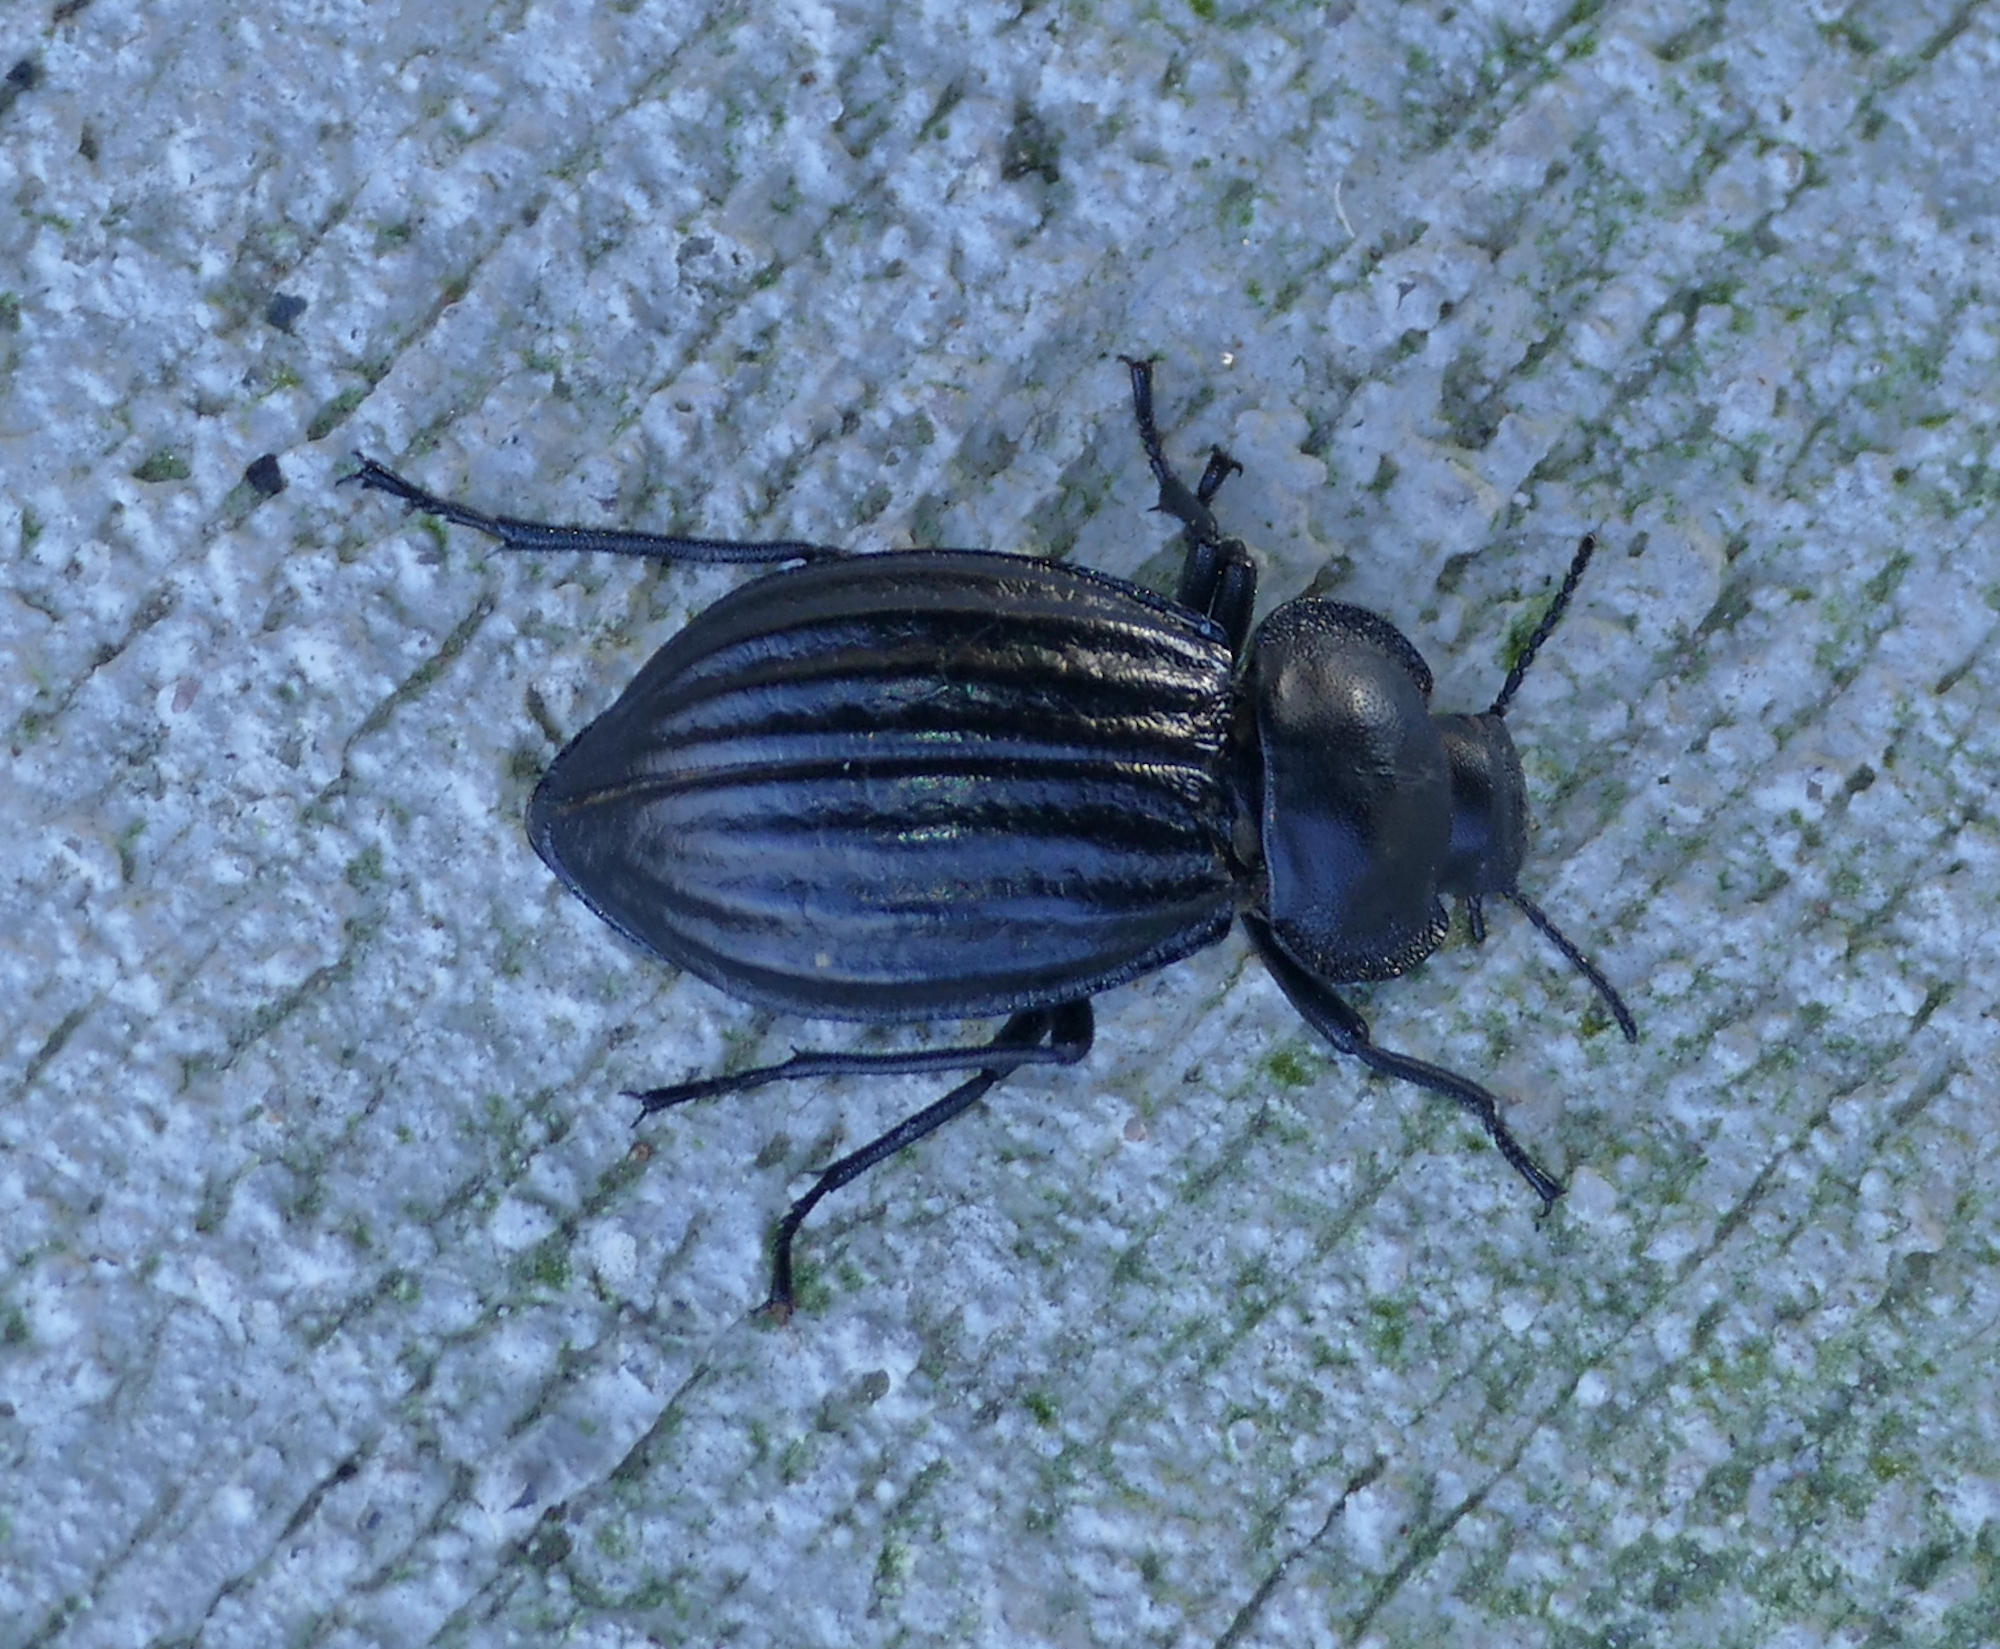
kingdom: Animalia
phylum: Arthropoda
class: Insecta
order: Coleoptera
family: Tenebrionidae
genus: Stenomorpha
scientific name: Stenomorpha corrugans
